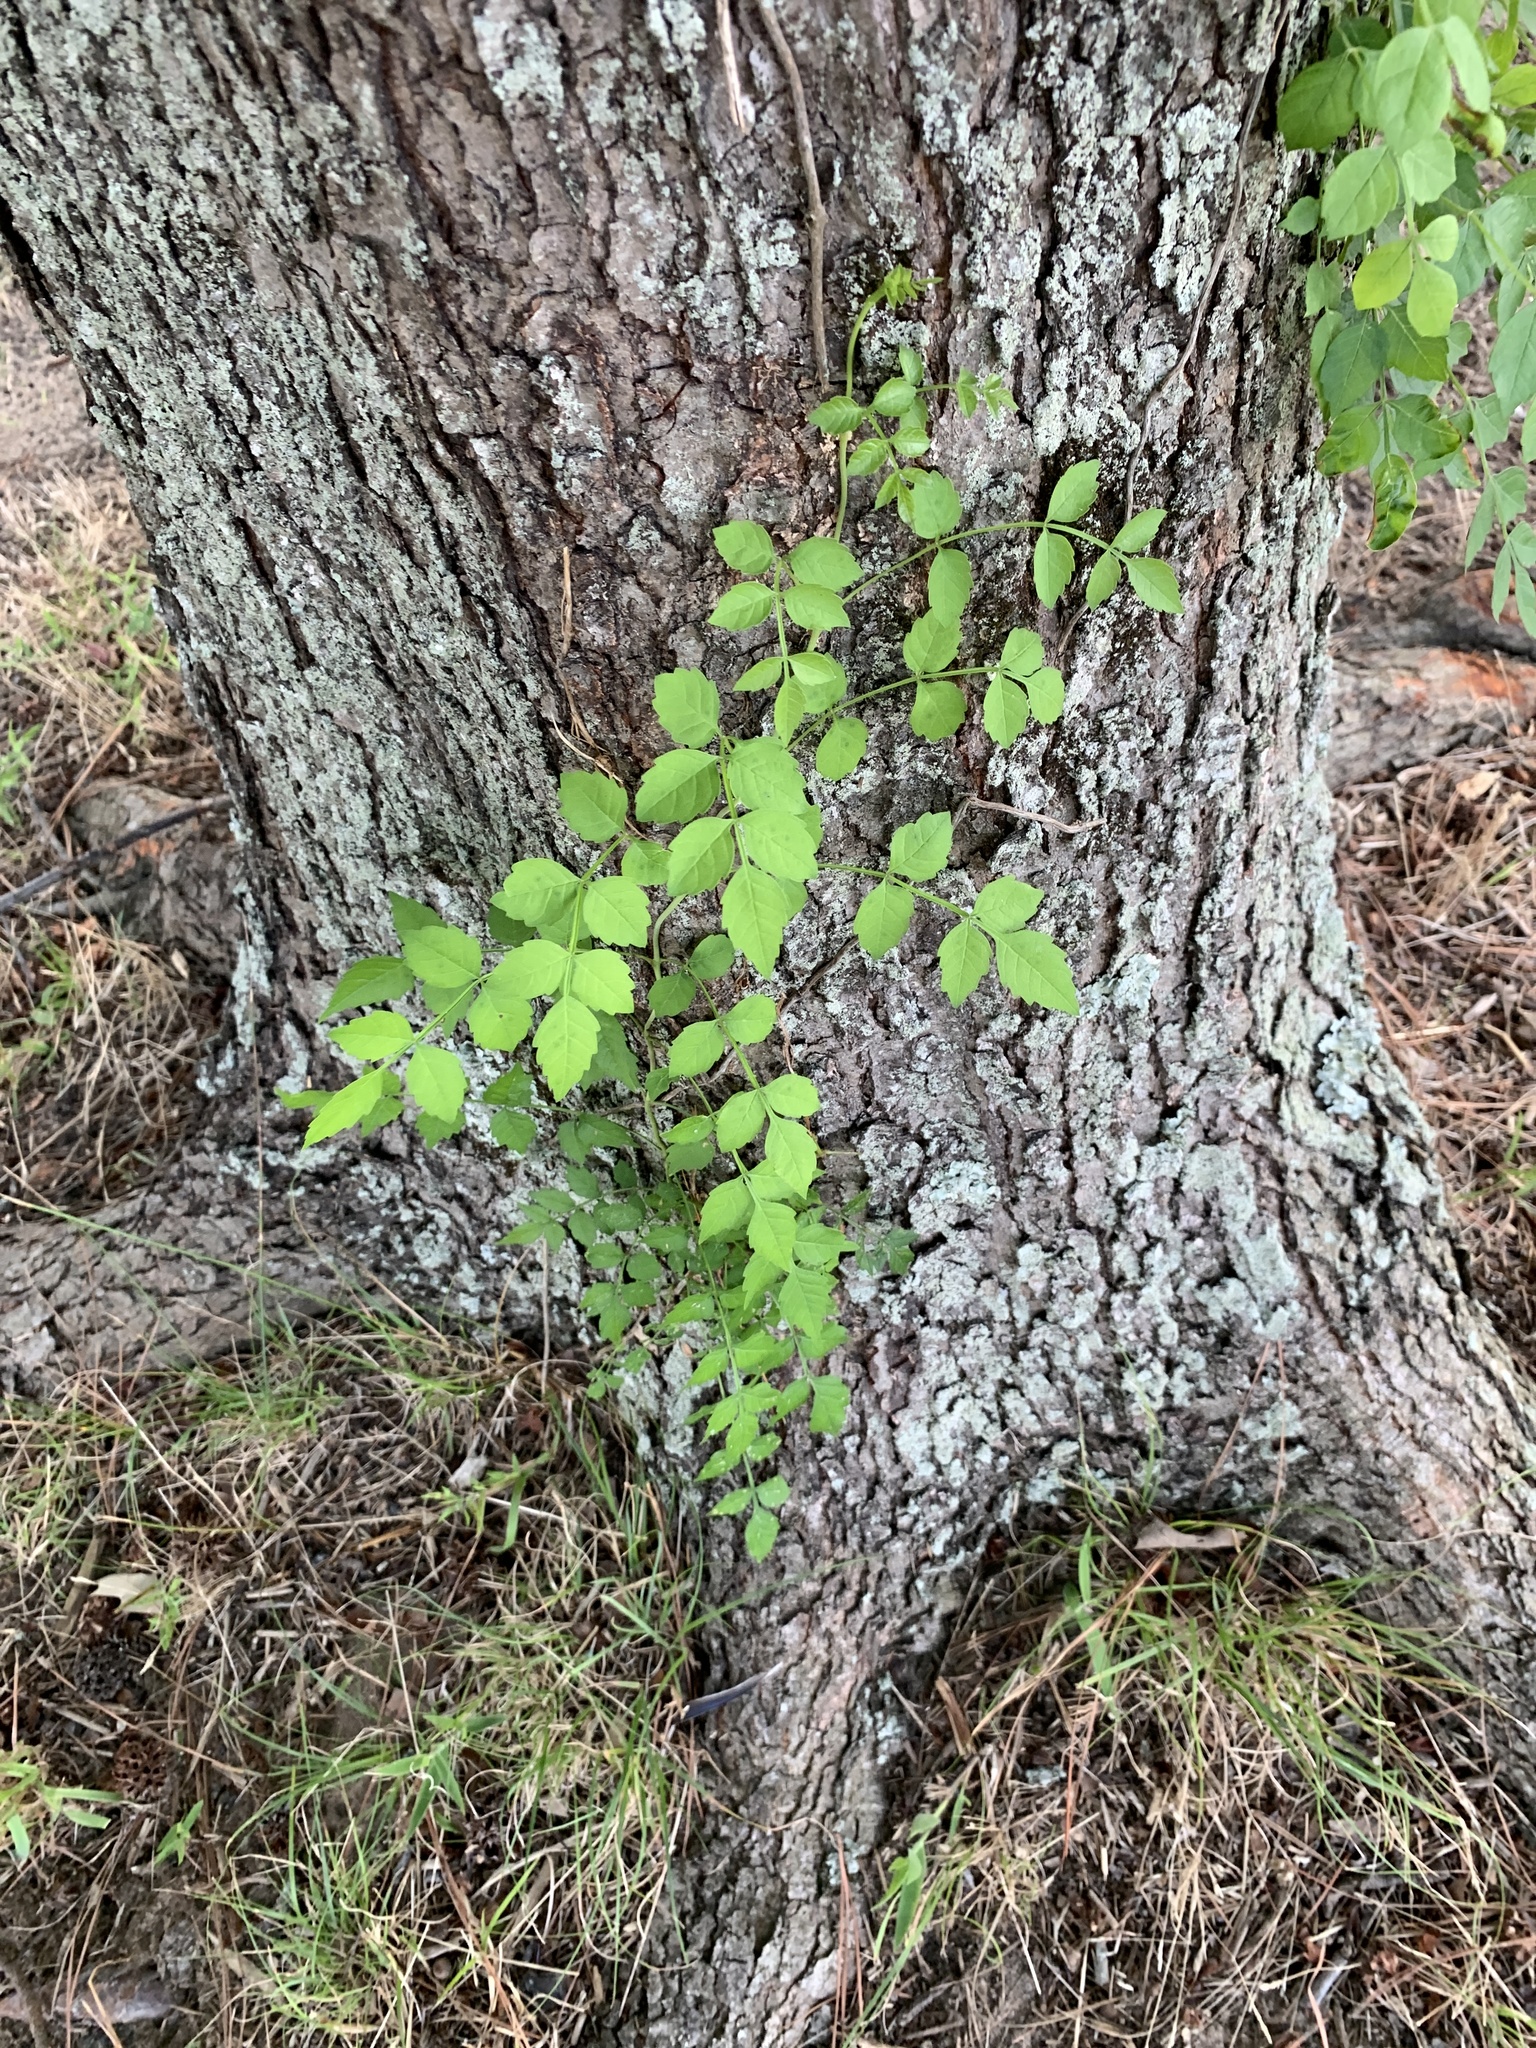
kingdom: Plantae
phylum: Tracheophyta
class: Magnoliopsida
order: Lamiales
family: Bignoniaceae
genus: Campsis
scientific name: Campsis radicans
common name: Trumpet-creeper
